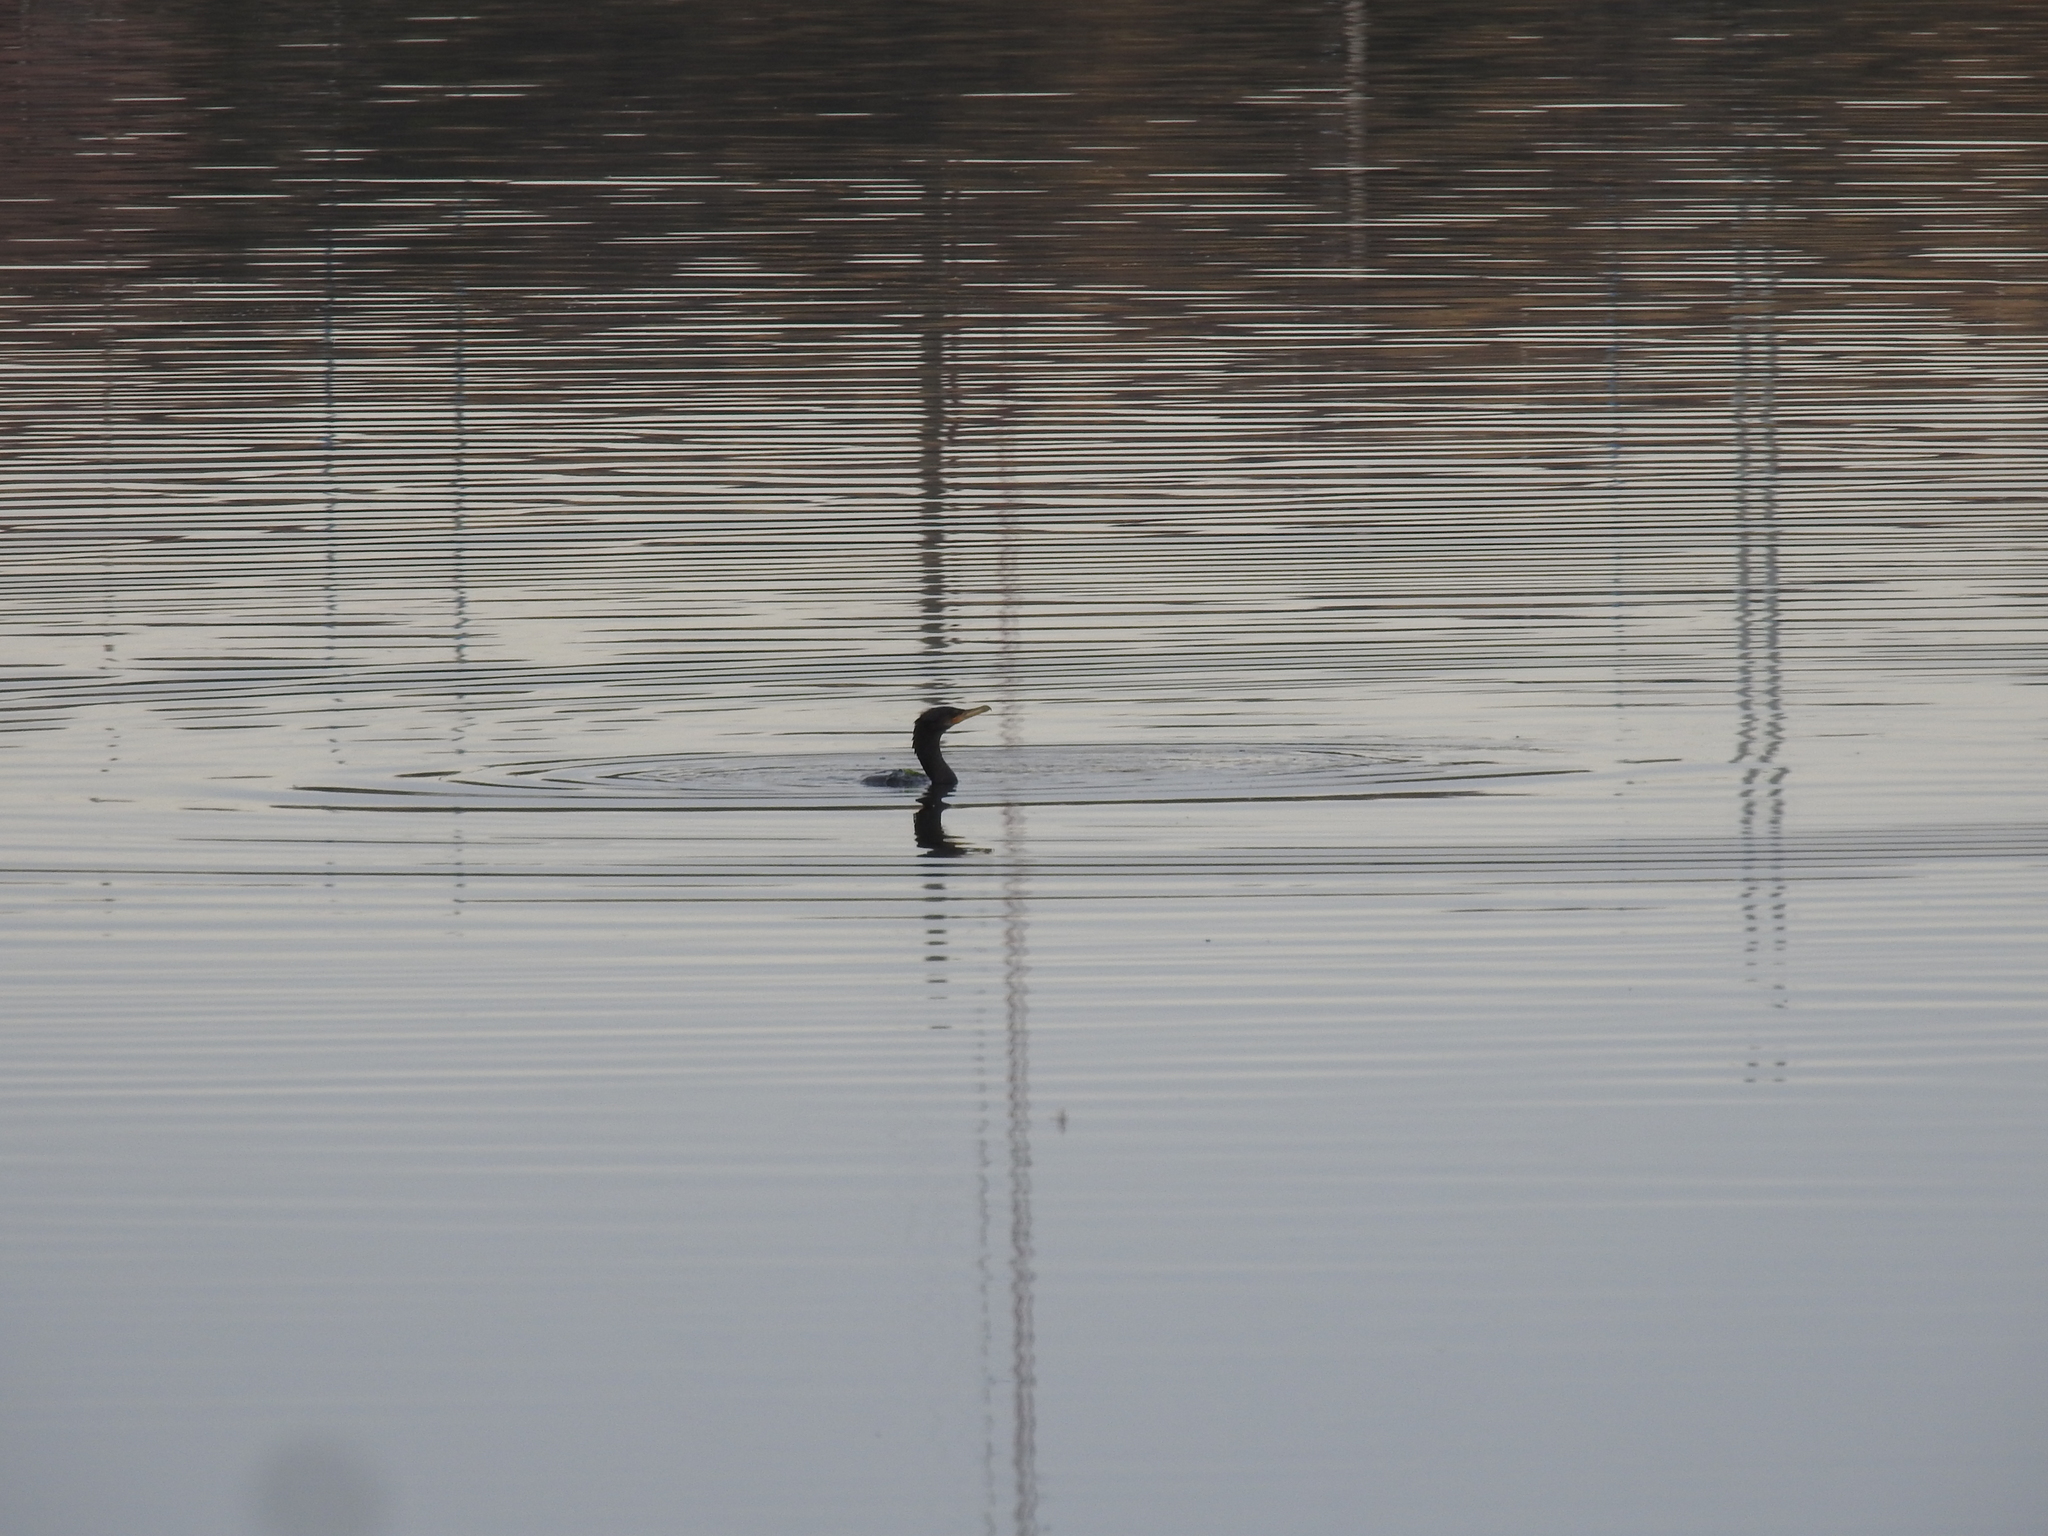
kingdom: Animalia
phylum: Chordata
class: Aves
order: Suliformes
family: Phalacrocoracidae
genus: Phalacrocorax
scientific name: Phalacrocorax magellanicus
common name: Rock shag
